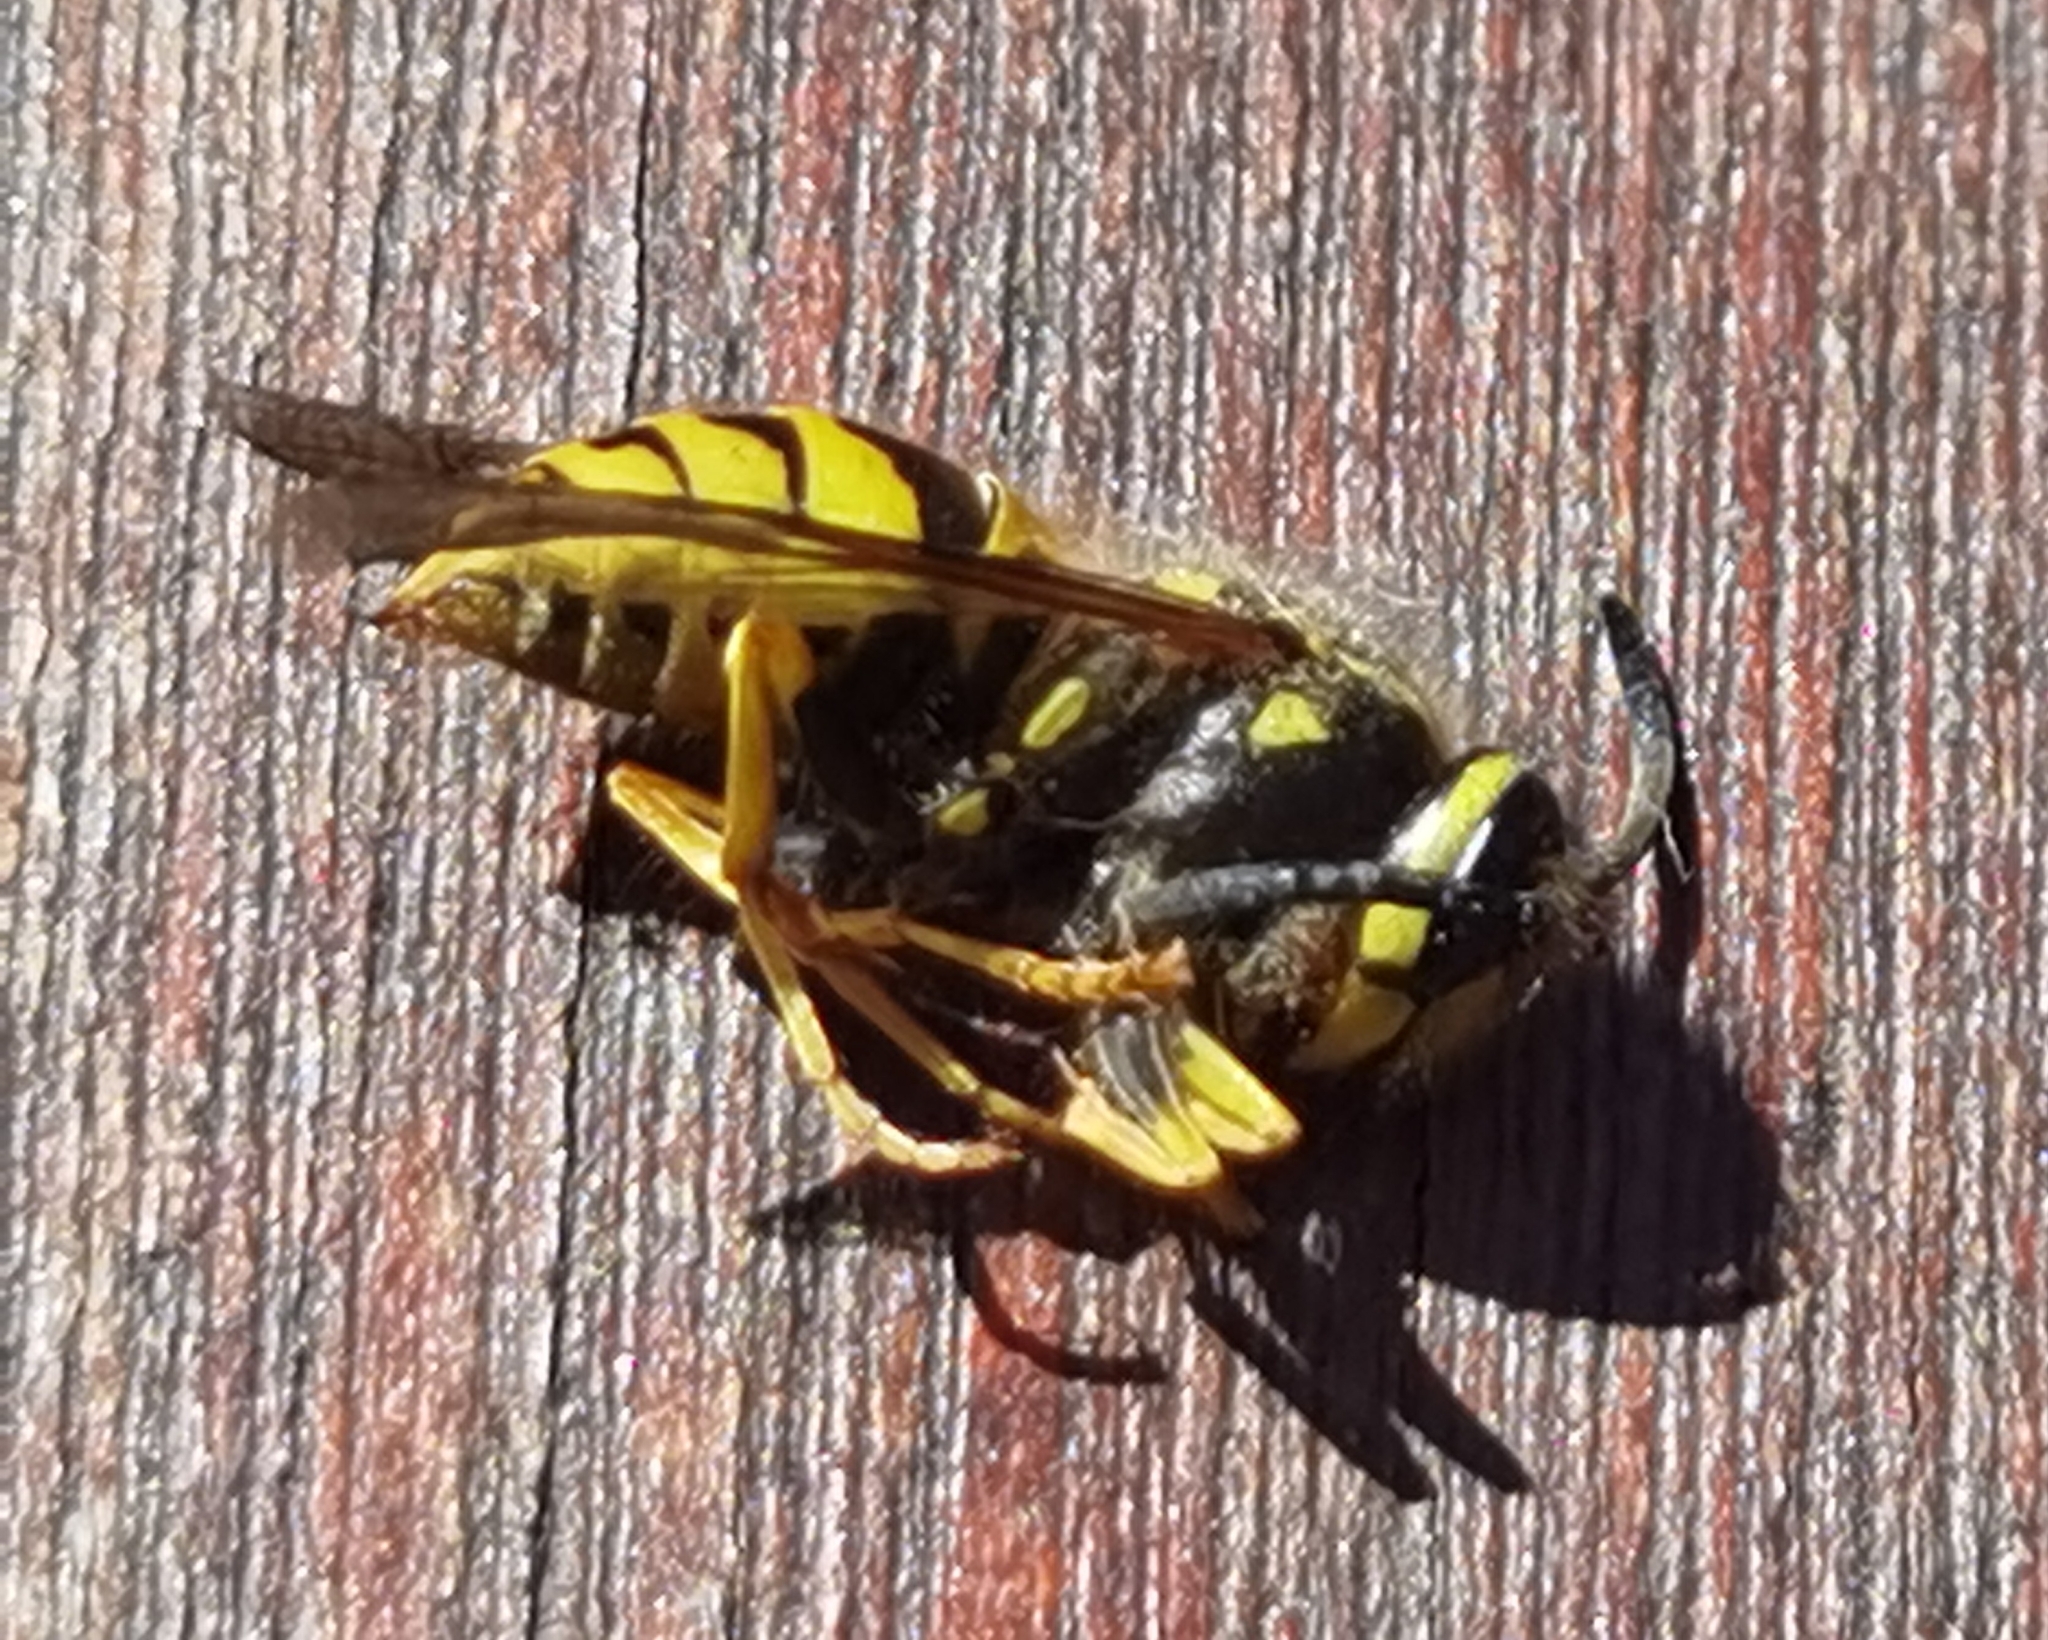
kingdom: Animalia
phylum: Arthropoda
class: Insecta
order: Hymenoptera
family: Vespidae
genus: Vespula
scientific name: Vespula germanica
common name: German wasp
